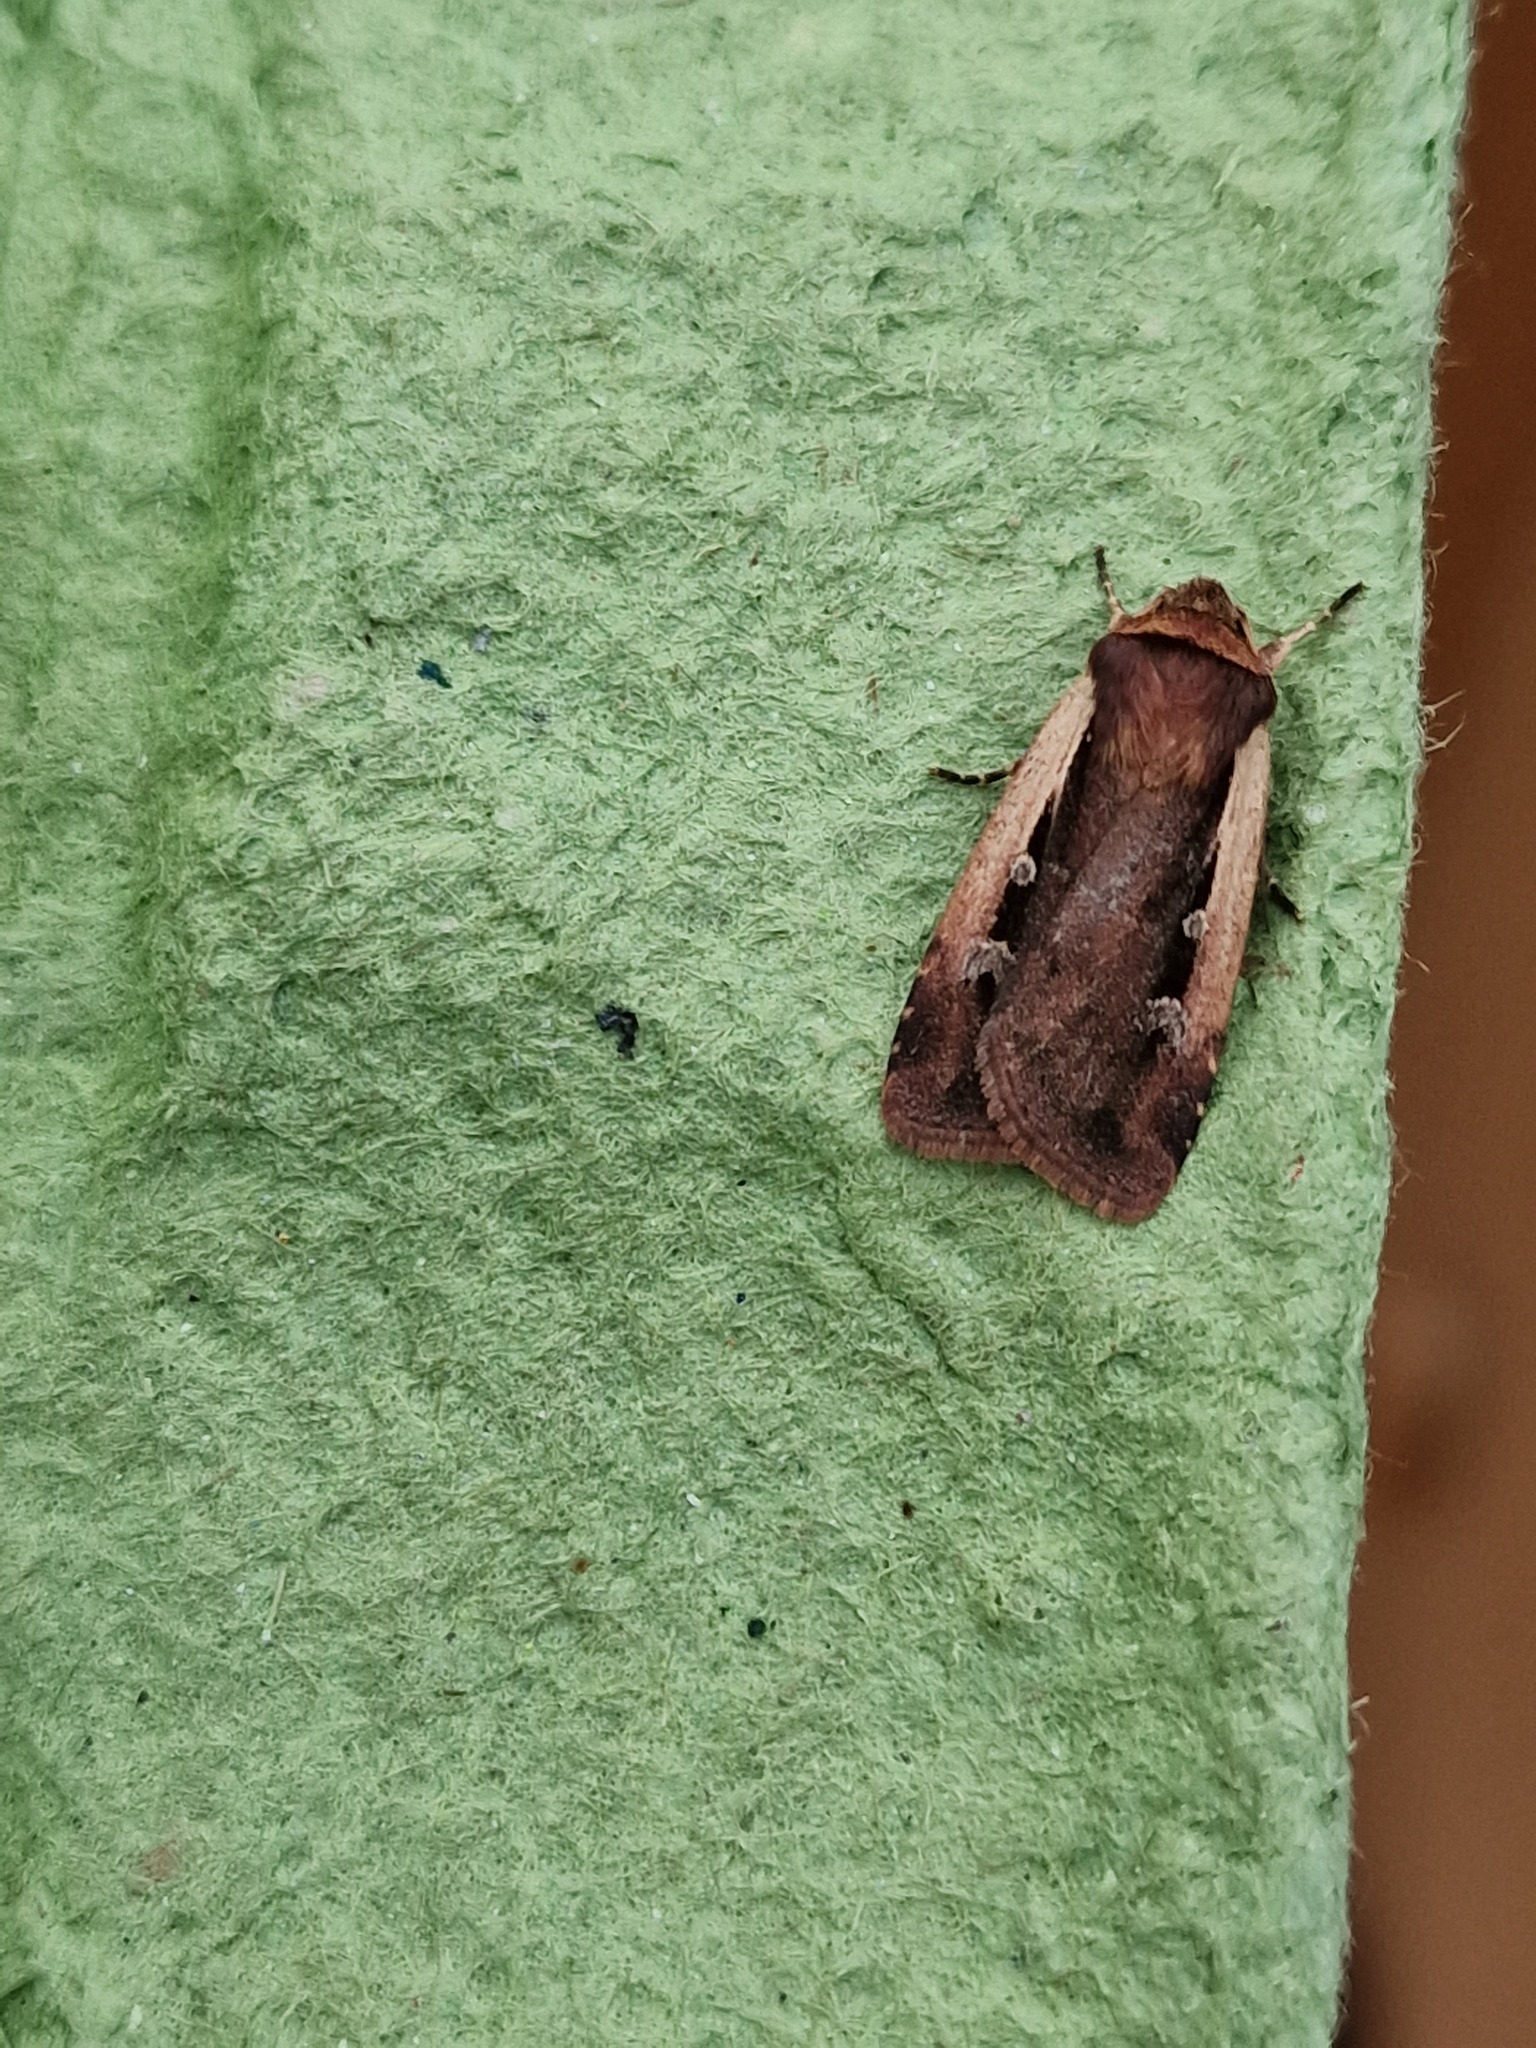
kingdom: Animalia
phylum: Arthropoda
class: Insecta
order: Lepidoptera
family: Noctuidae
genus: Ochropleura
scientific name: Ochropleura plecta
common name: Flame shoulder
